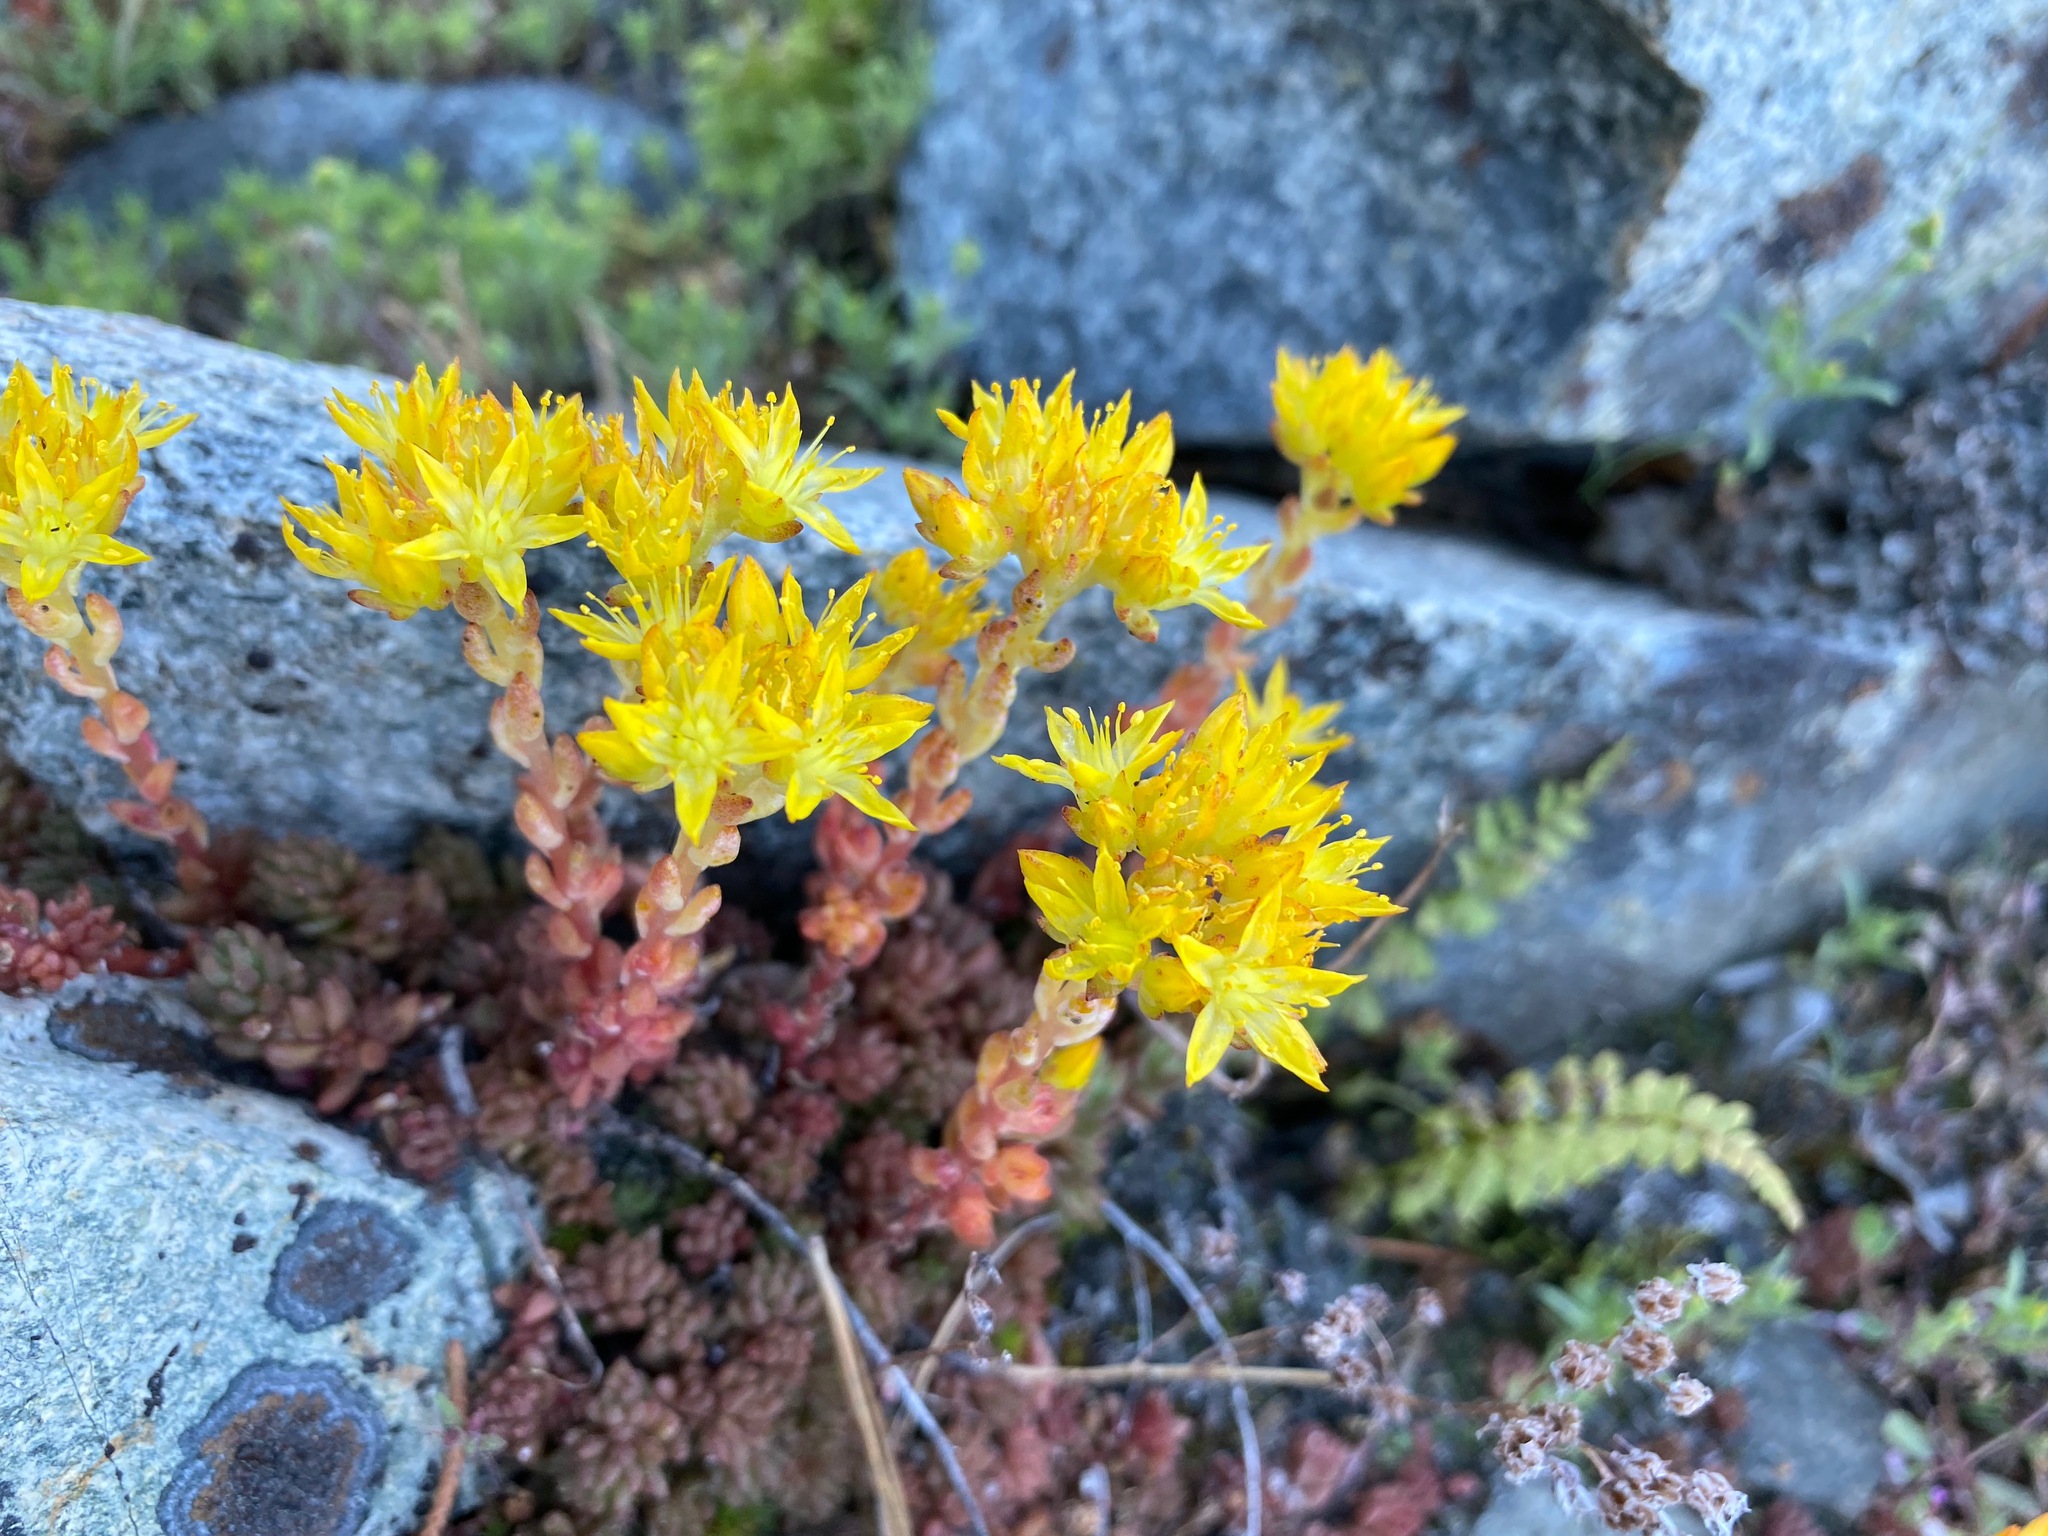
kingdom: Plantae
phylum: Tracheophyta
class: Magnoliopsida
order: Saxifragales
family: Crassulaceae
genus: Sedum
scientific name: Sedum lanceolatum
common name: Common stonecrop
